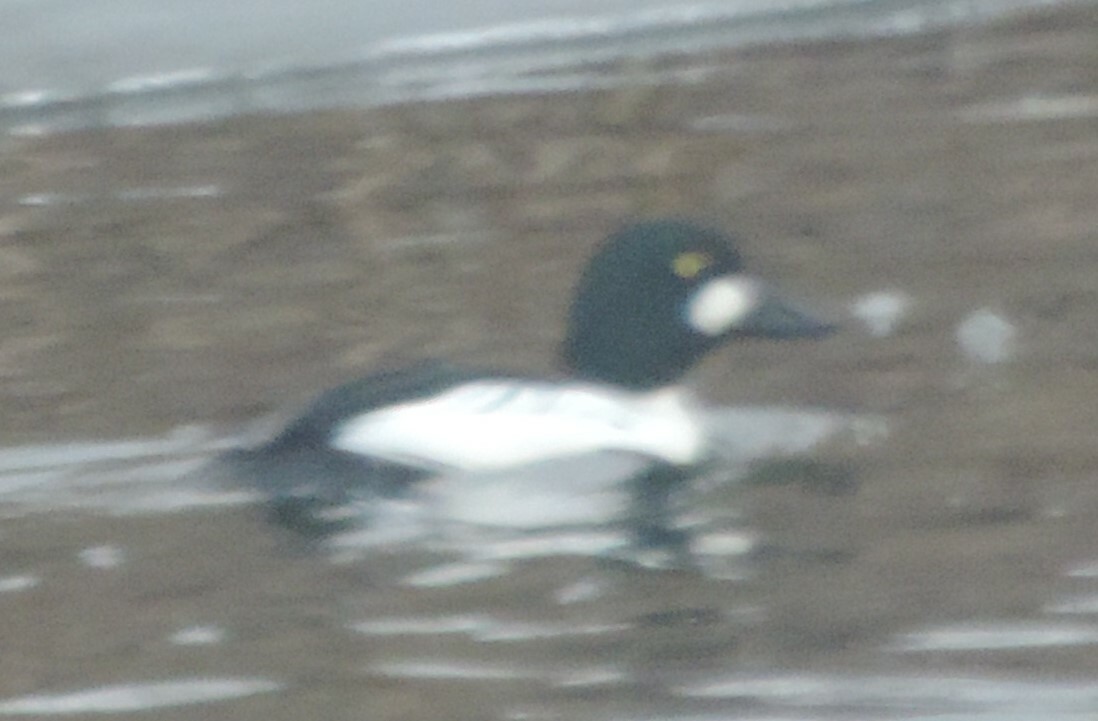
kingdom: Animalia
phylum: Chordata
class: Aves
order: Anseriformes
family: Anatidae
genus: Bucephala
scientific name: Bucephala clangula
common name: Common goldeneye
